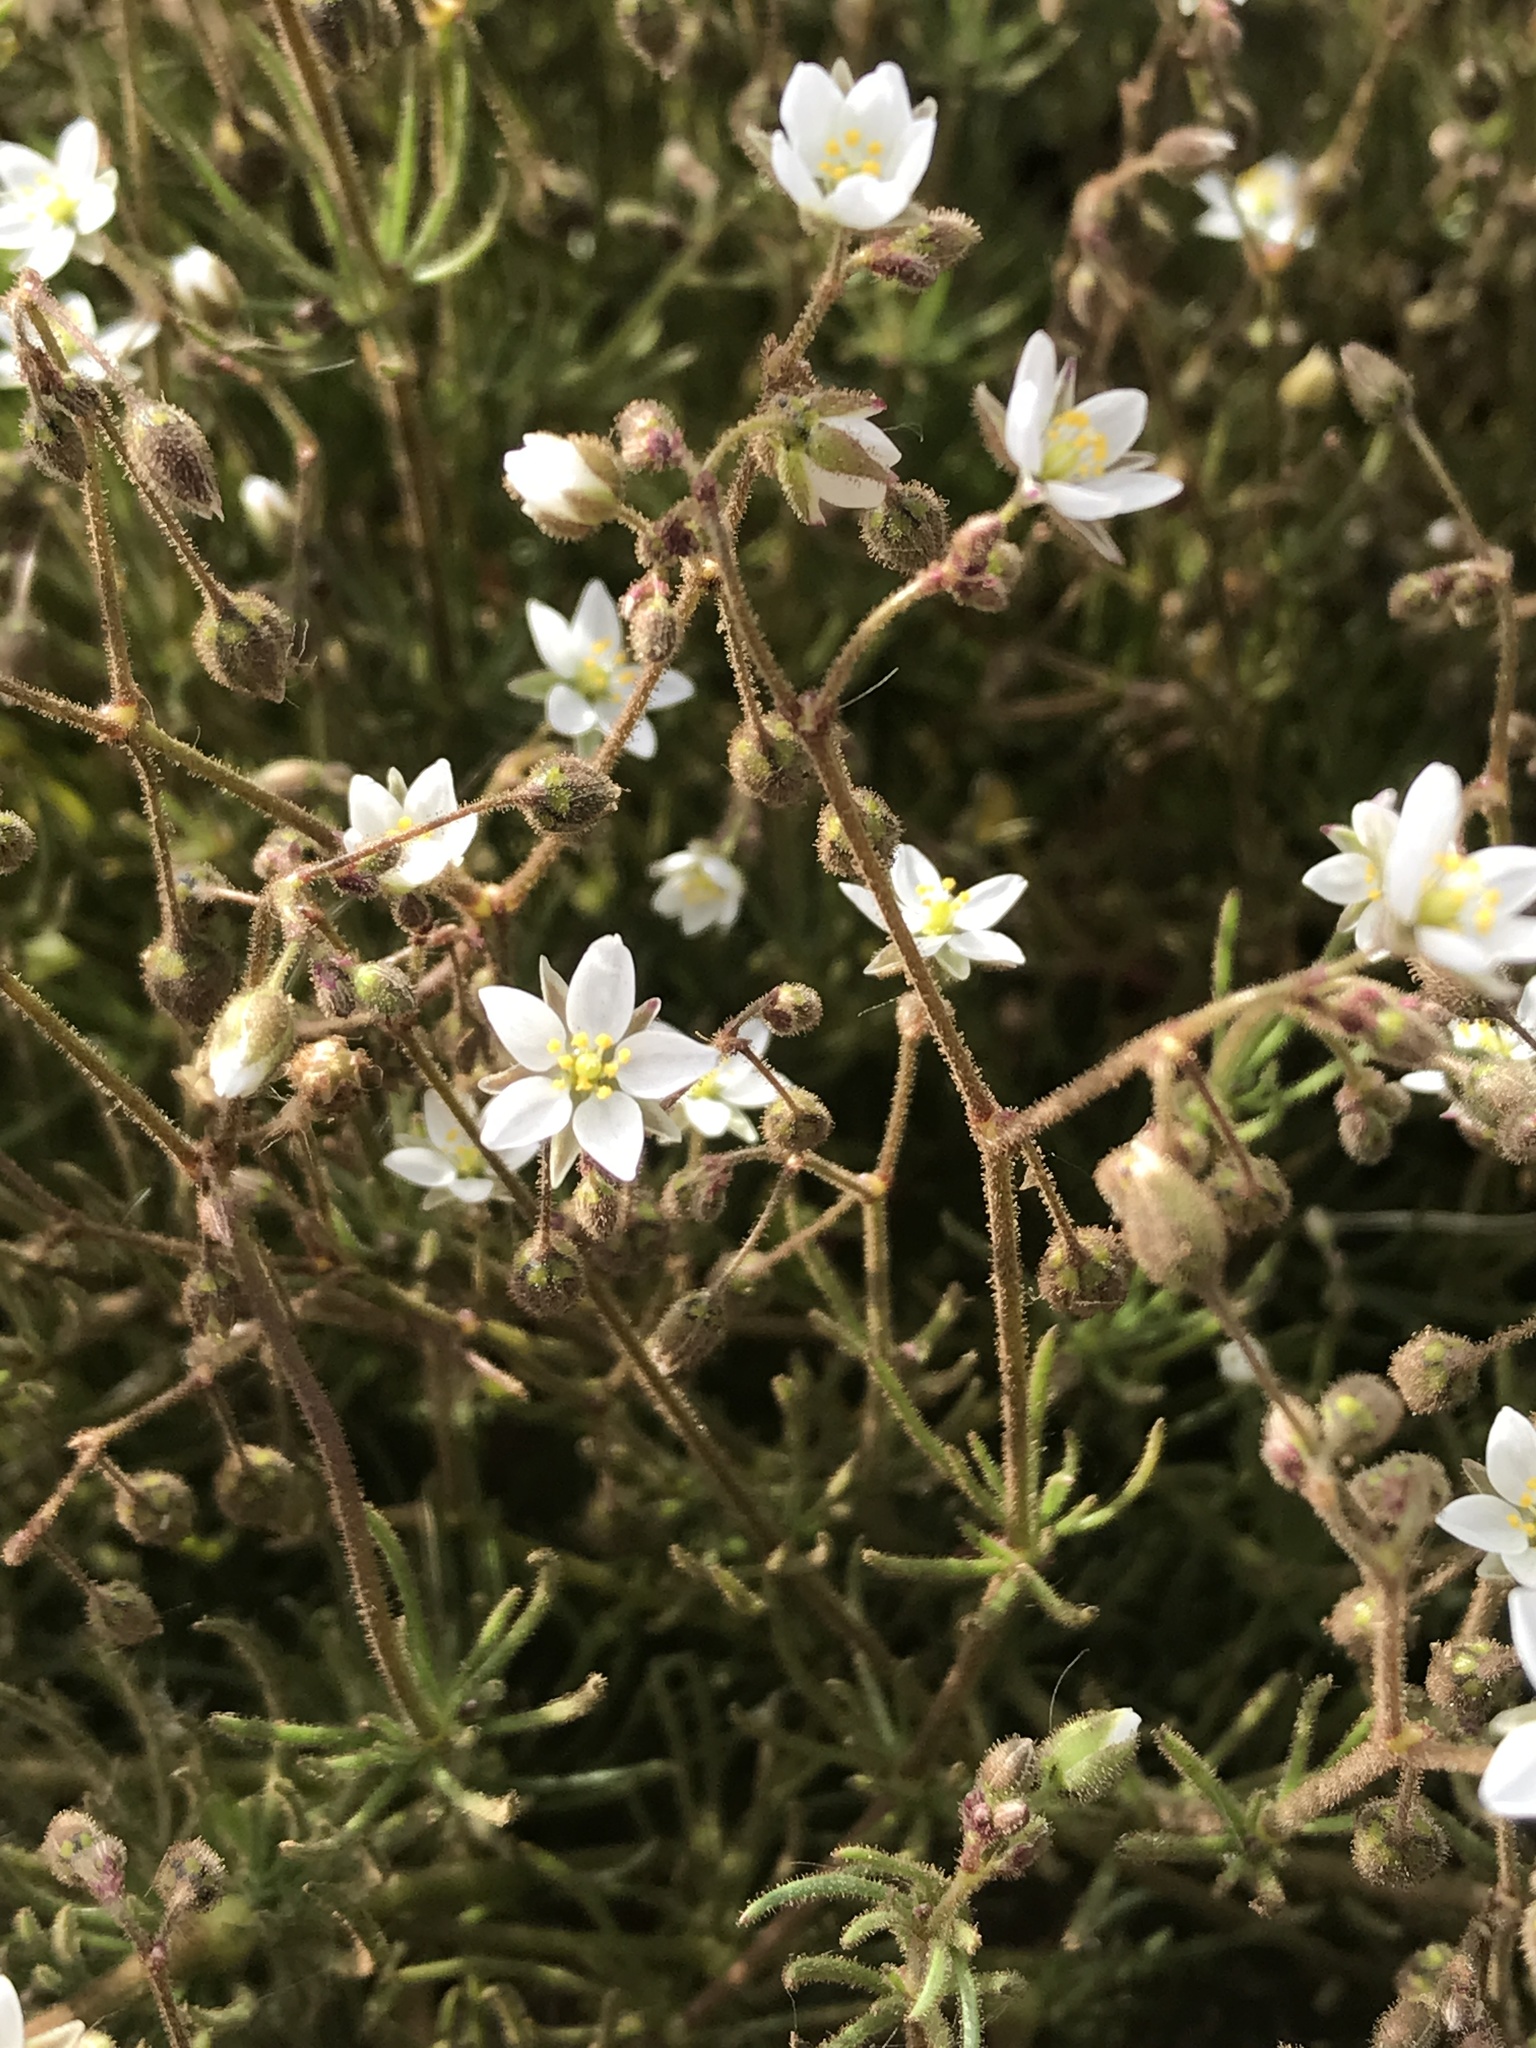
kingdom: Plantae
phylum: Tracheophyta
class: Magnoliopsida
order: Caryophyllales
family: Caryophyllaceae
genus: Spergula
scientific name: Spergula arvensis
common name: Corn spurrey
